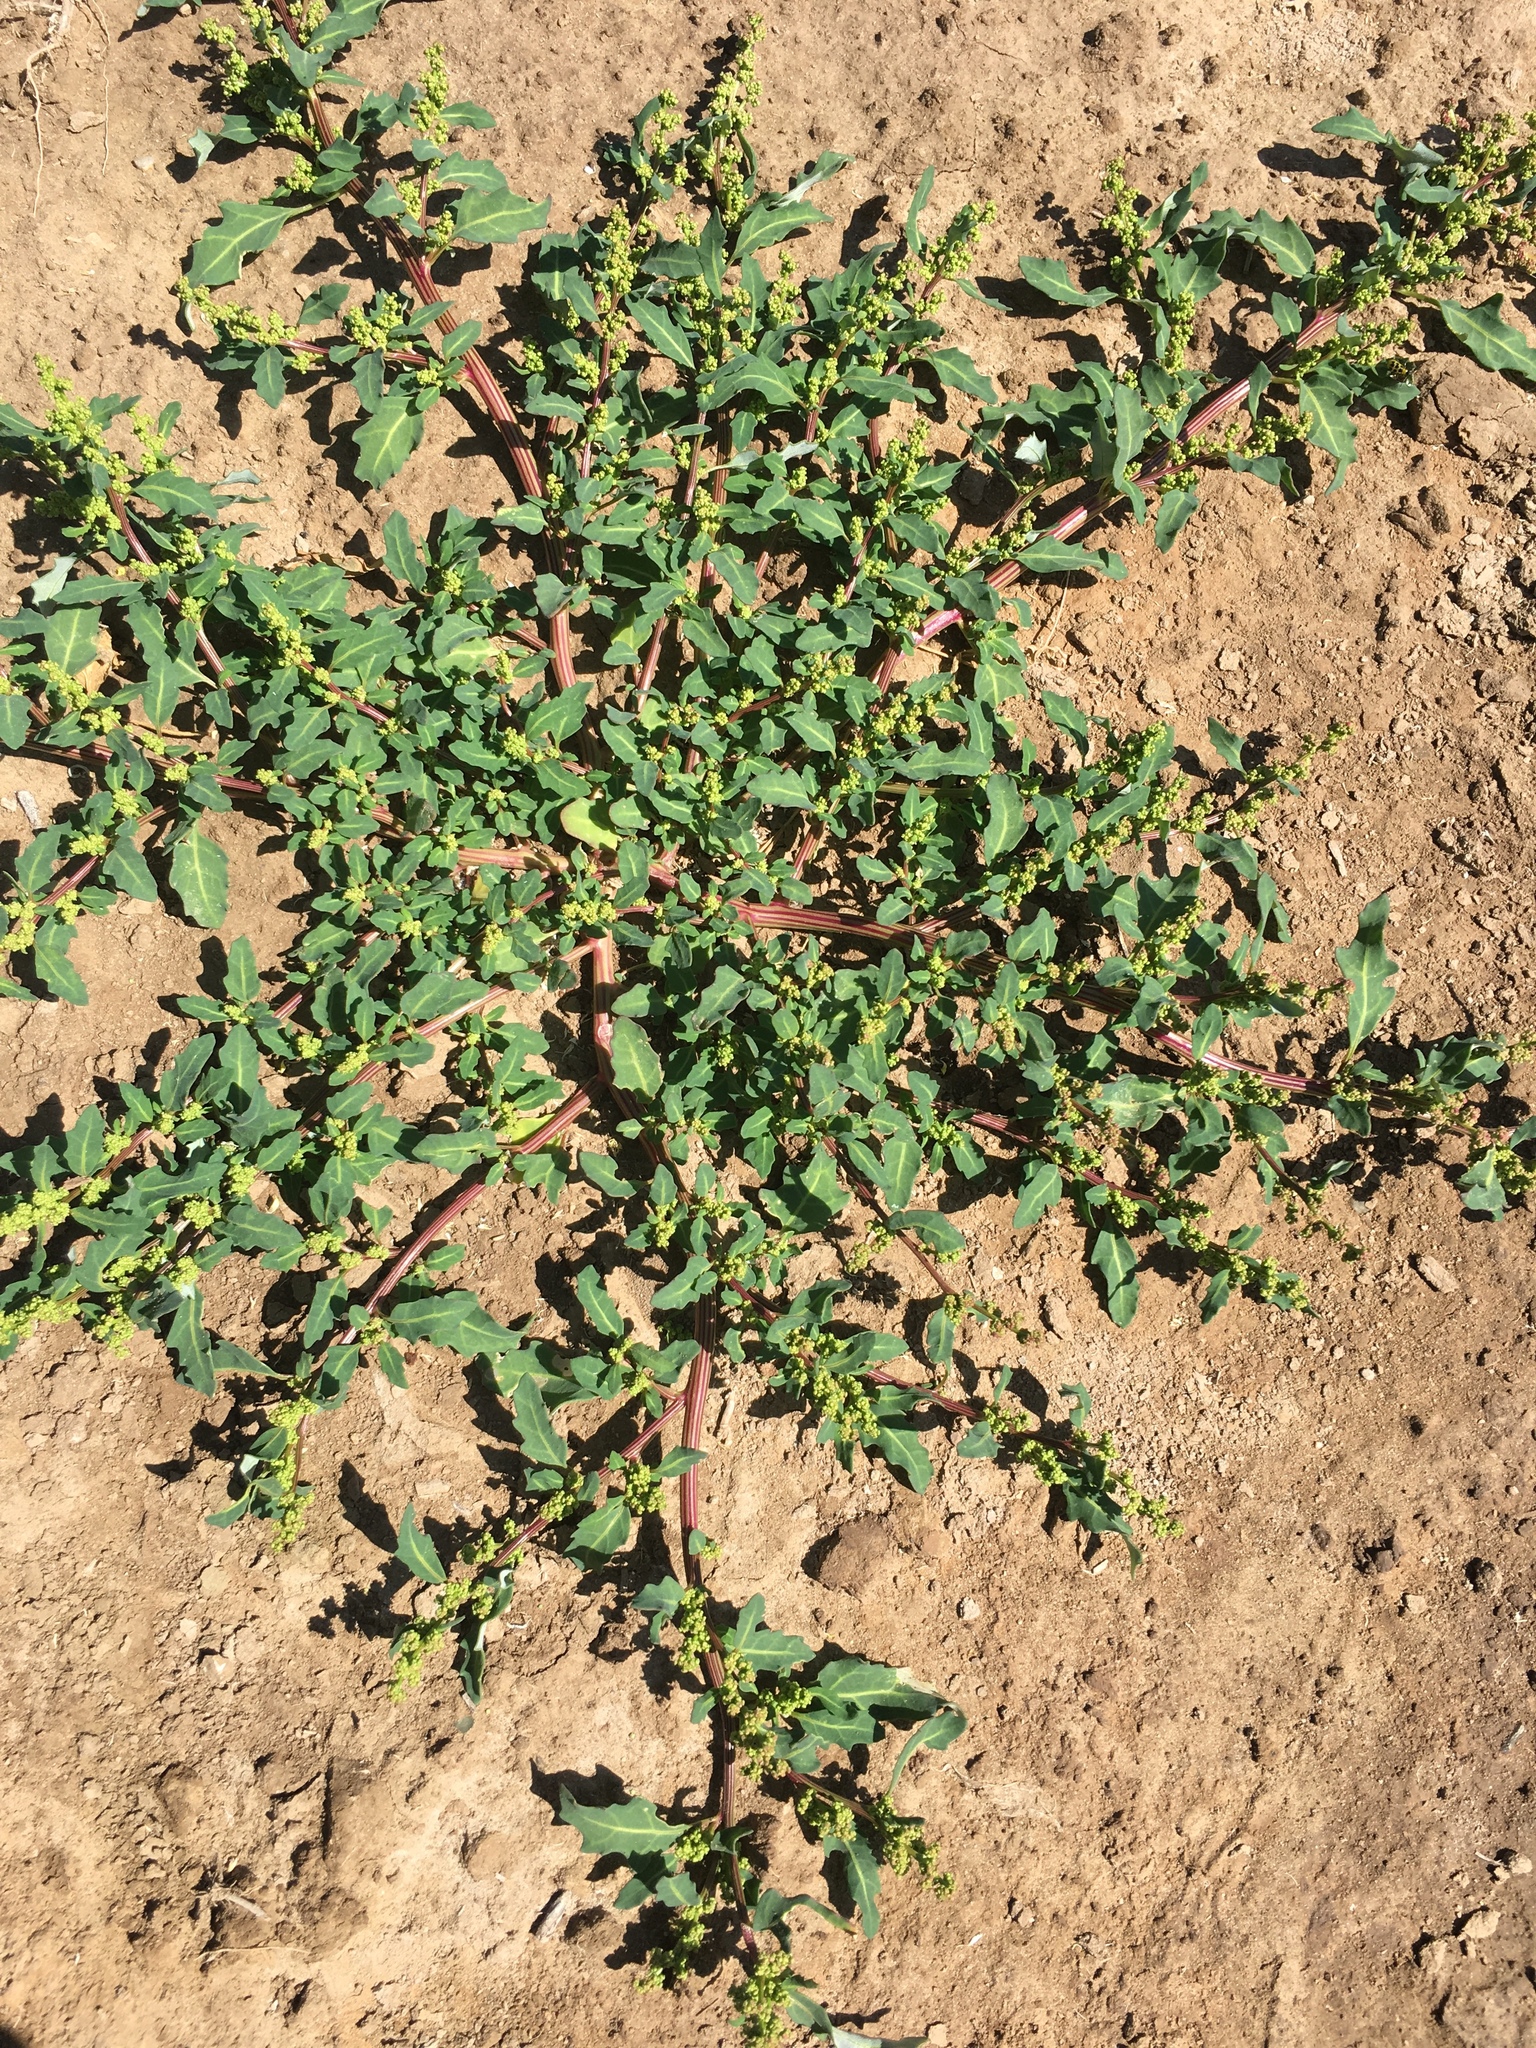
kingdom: Plantae
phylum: Tracheophyta
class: Magnoliopsida
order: Caryophyllales
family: Amaranthaceae
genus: Oxybasis
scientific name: Oxybasis glauca
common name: Glaucous goosefoot
